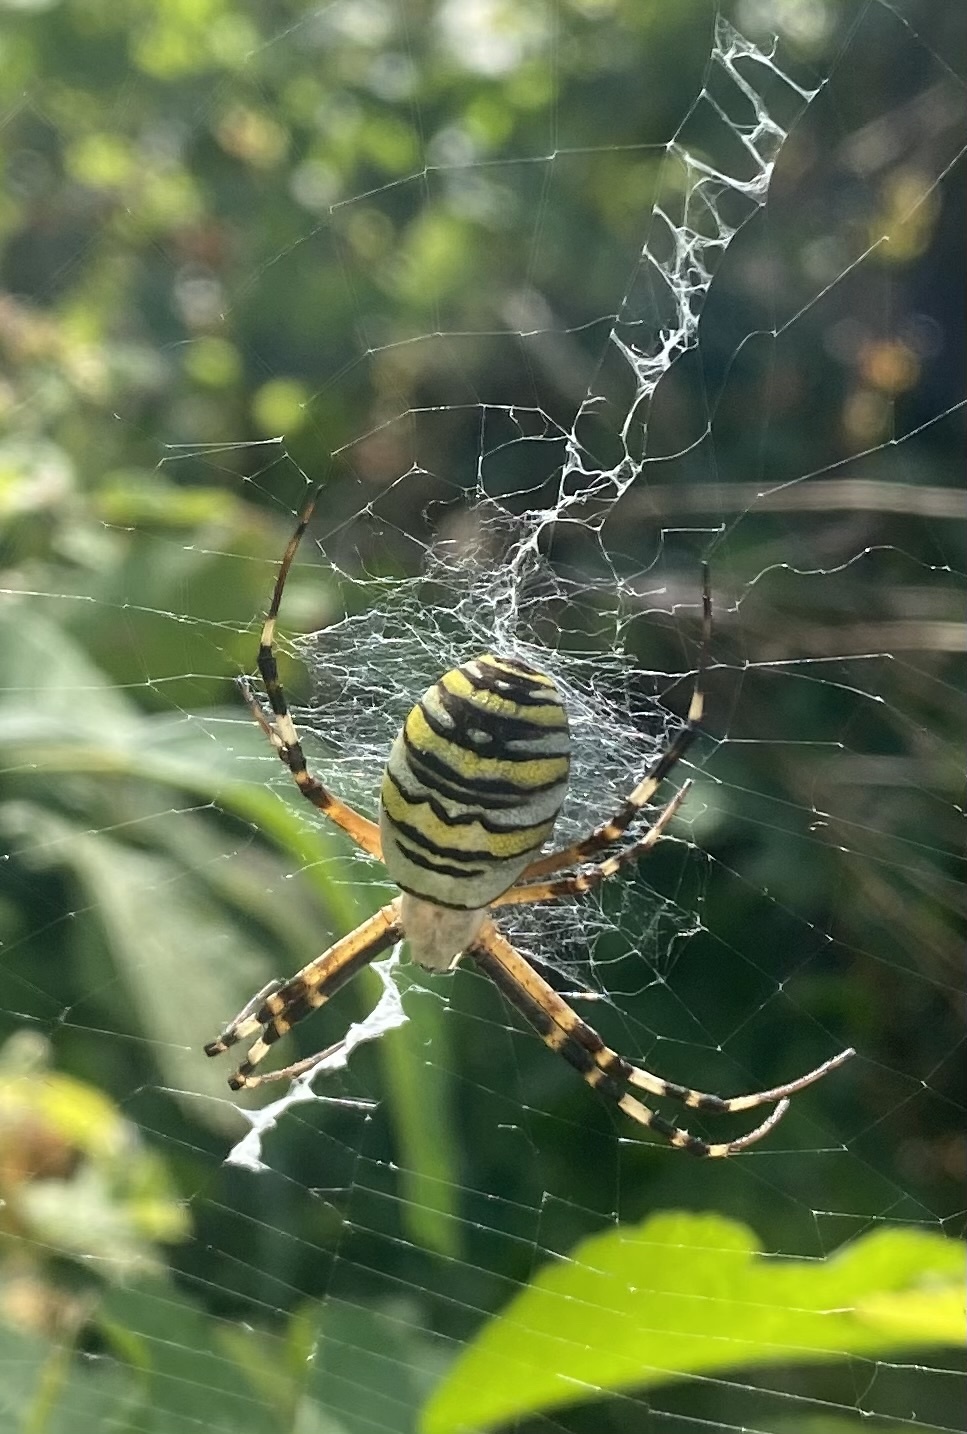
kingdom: Animalia
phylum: Arthropoda
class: Arachnida
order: Araneae
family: Araneidae
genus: Argiope
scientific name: Argiope bruennichi
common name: Wasp spider
